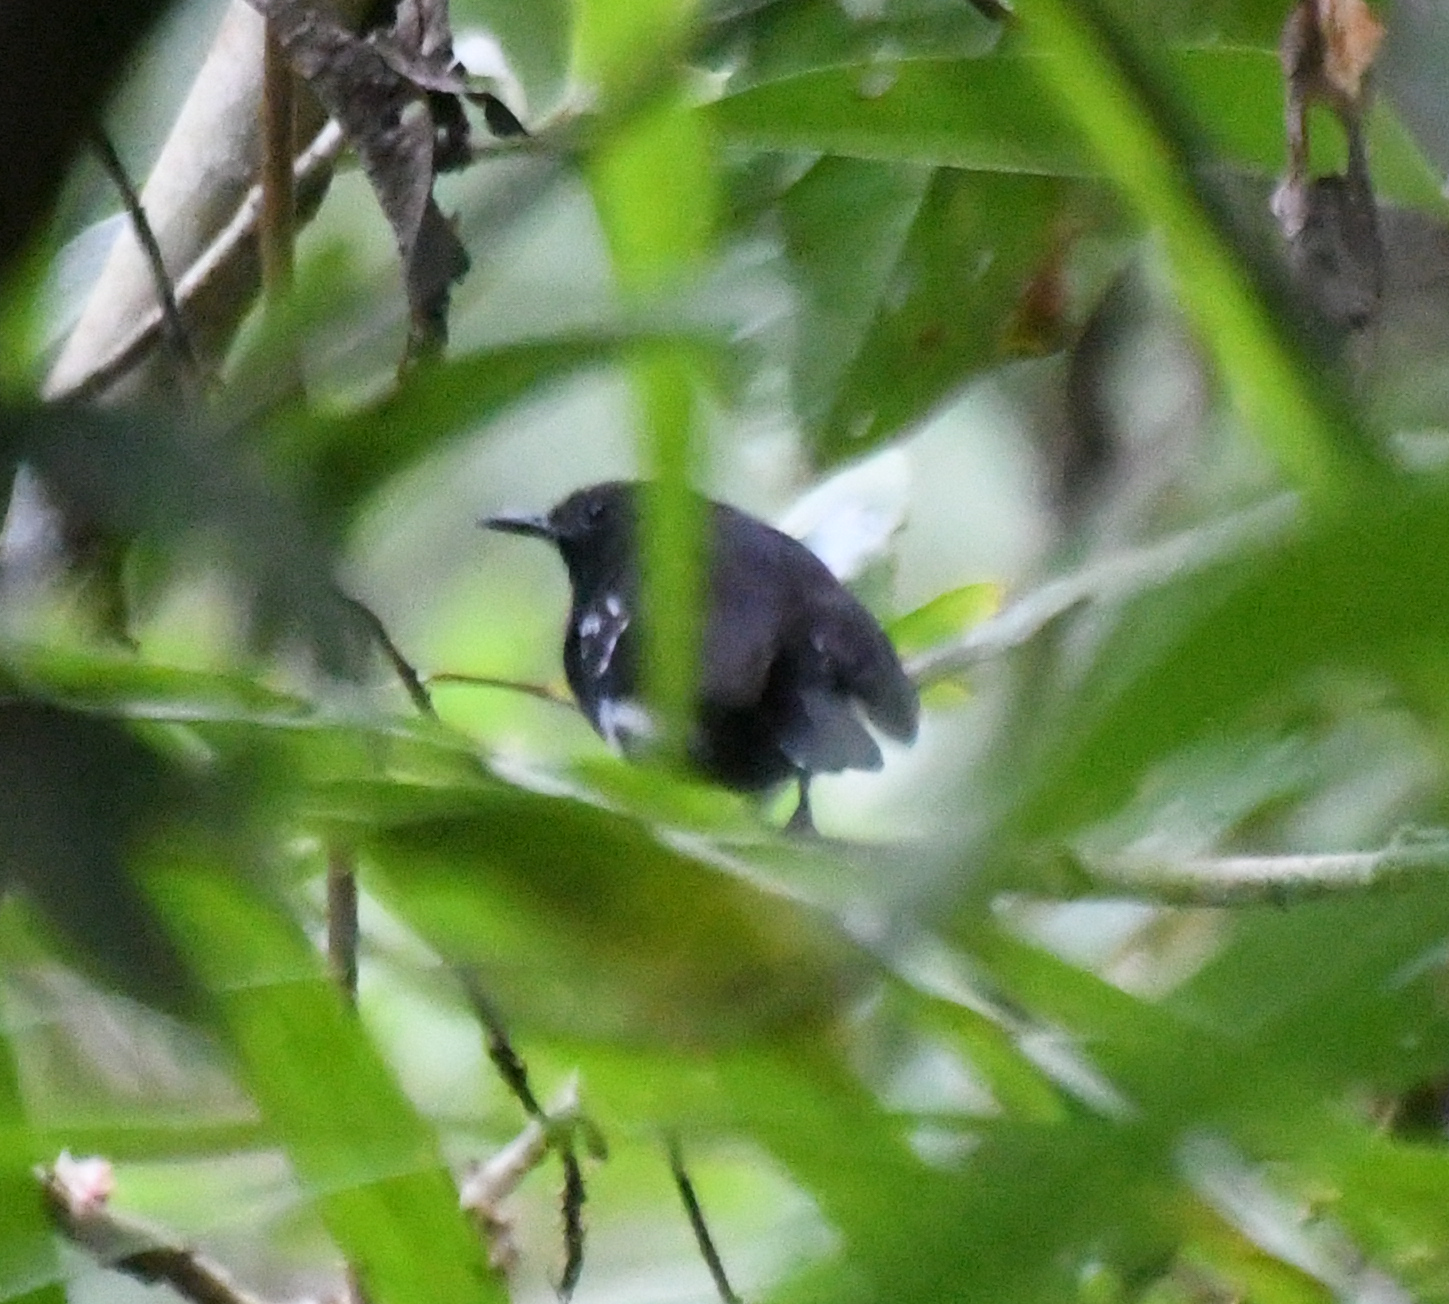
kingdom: Animalia
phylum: Chordata
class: Aves
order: Passeriformes
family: Thamnophilidae
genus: Myrmotherula
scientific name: Myrmotherula axillaris
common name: White-flanked antwren
